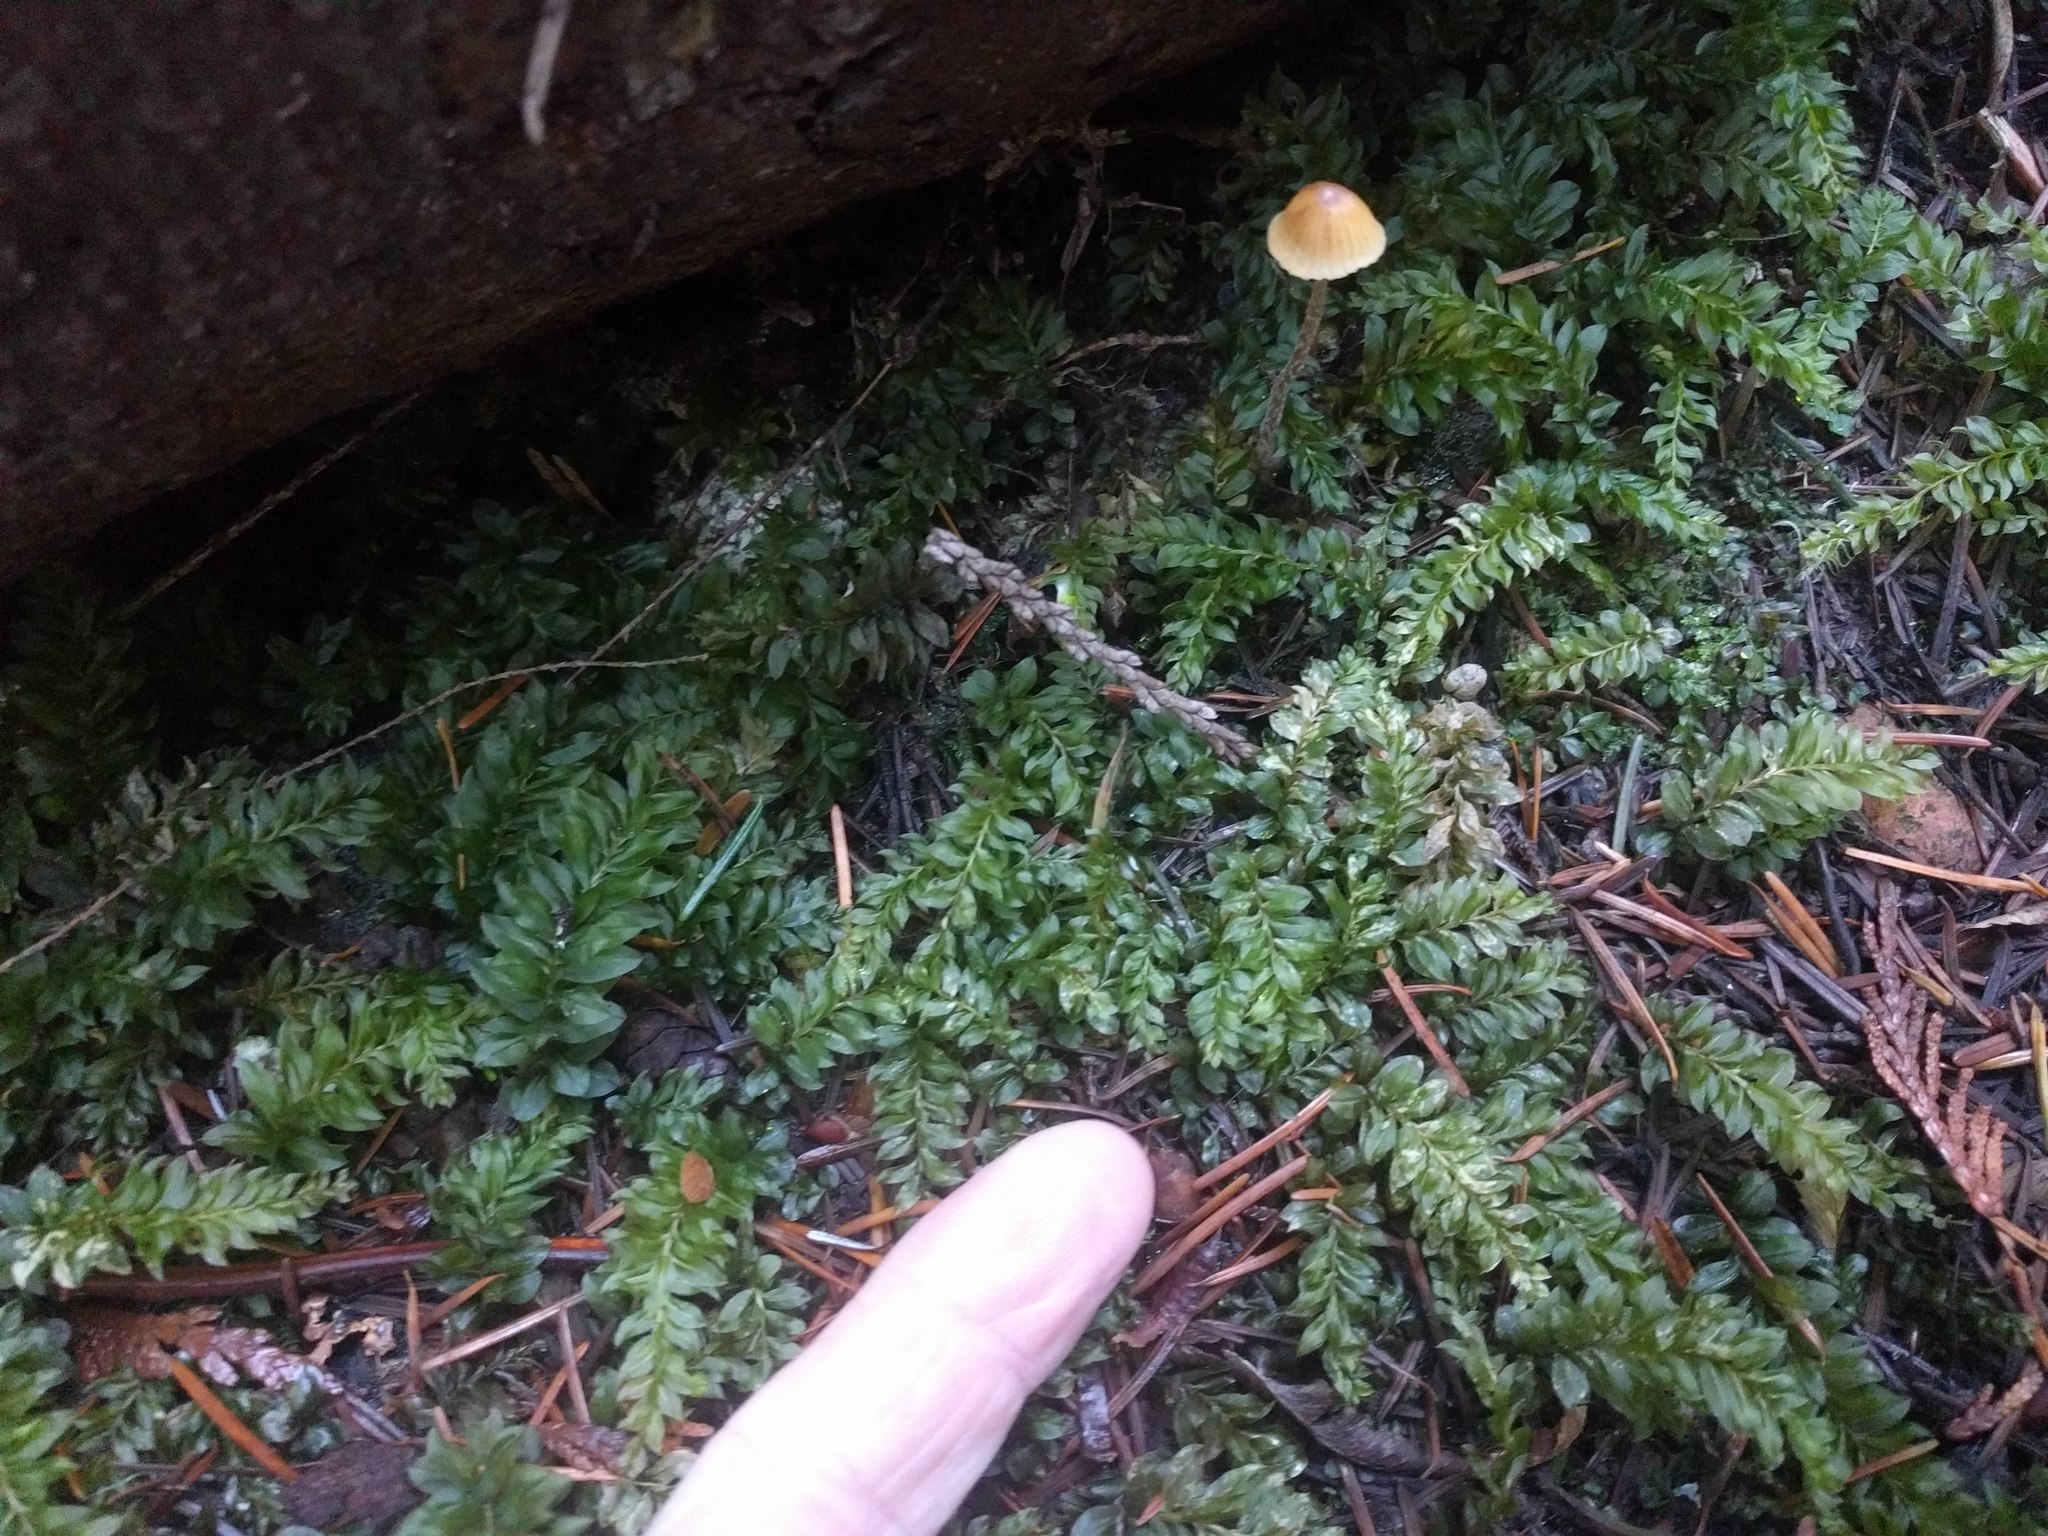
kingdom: Plantae
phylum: Bryophyta
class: Bryopsida
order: Bryales
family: Mniaceae
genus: Plagiomnium
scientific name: Plagiomnium insigne
